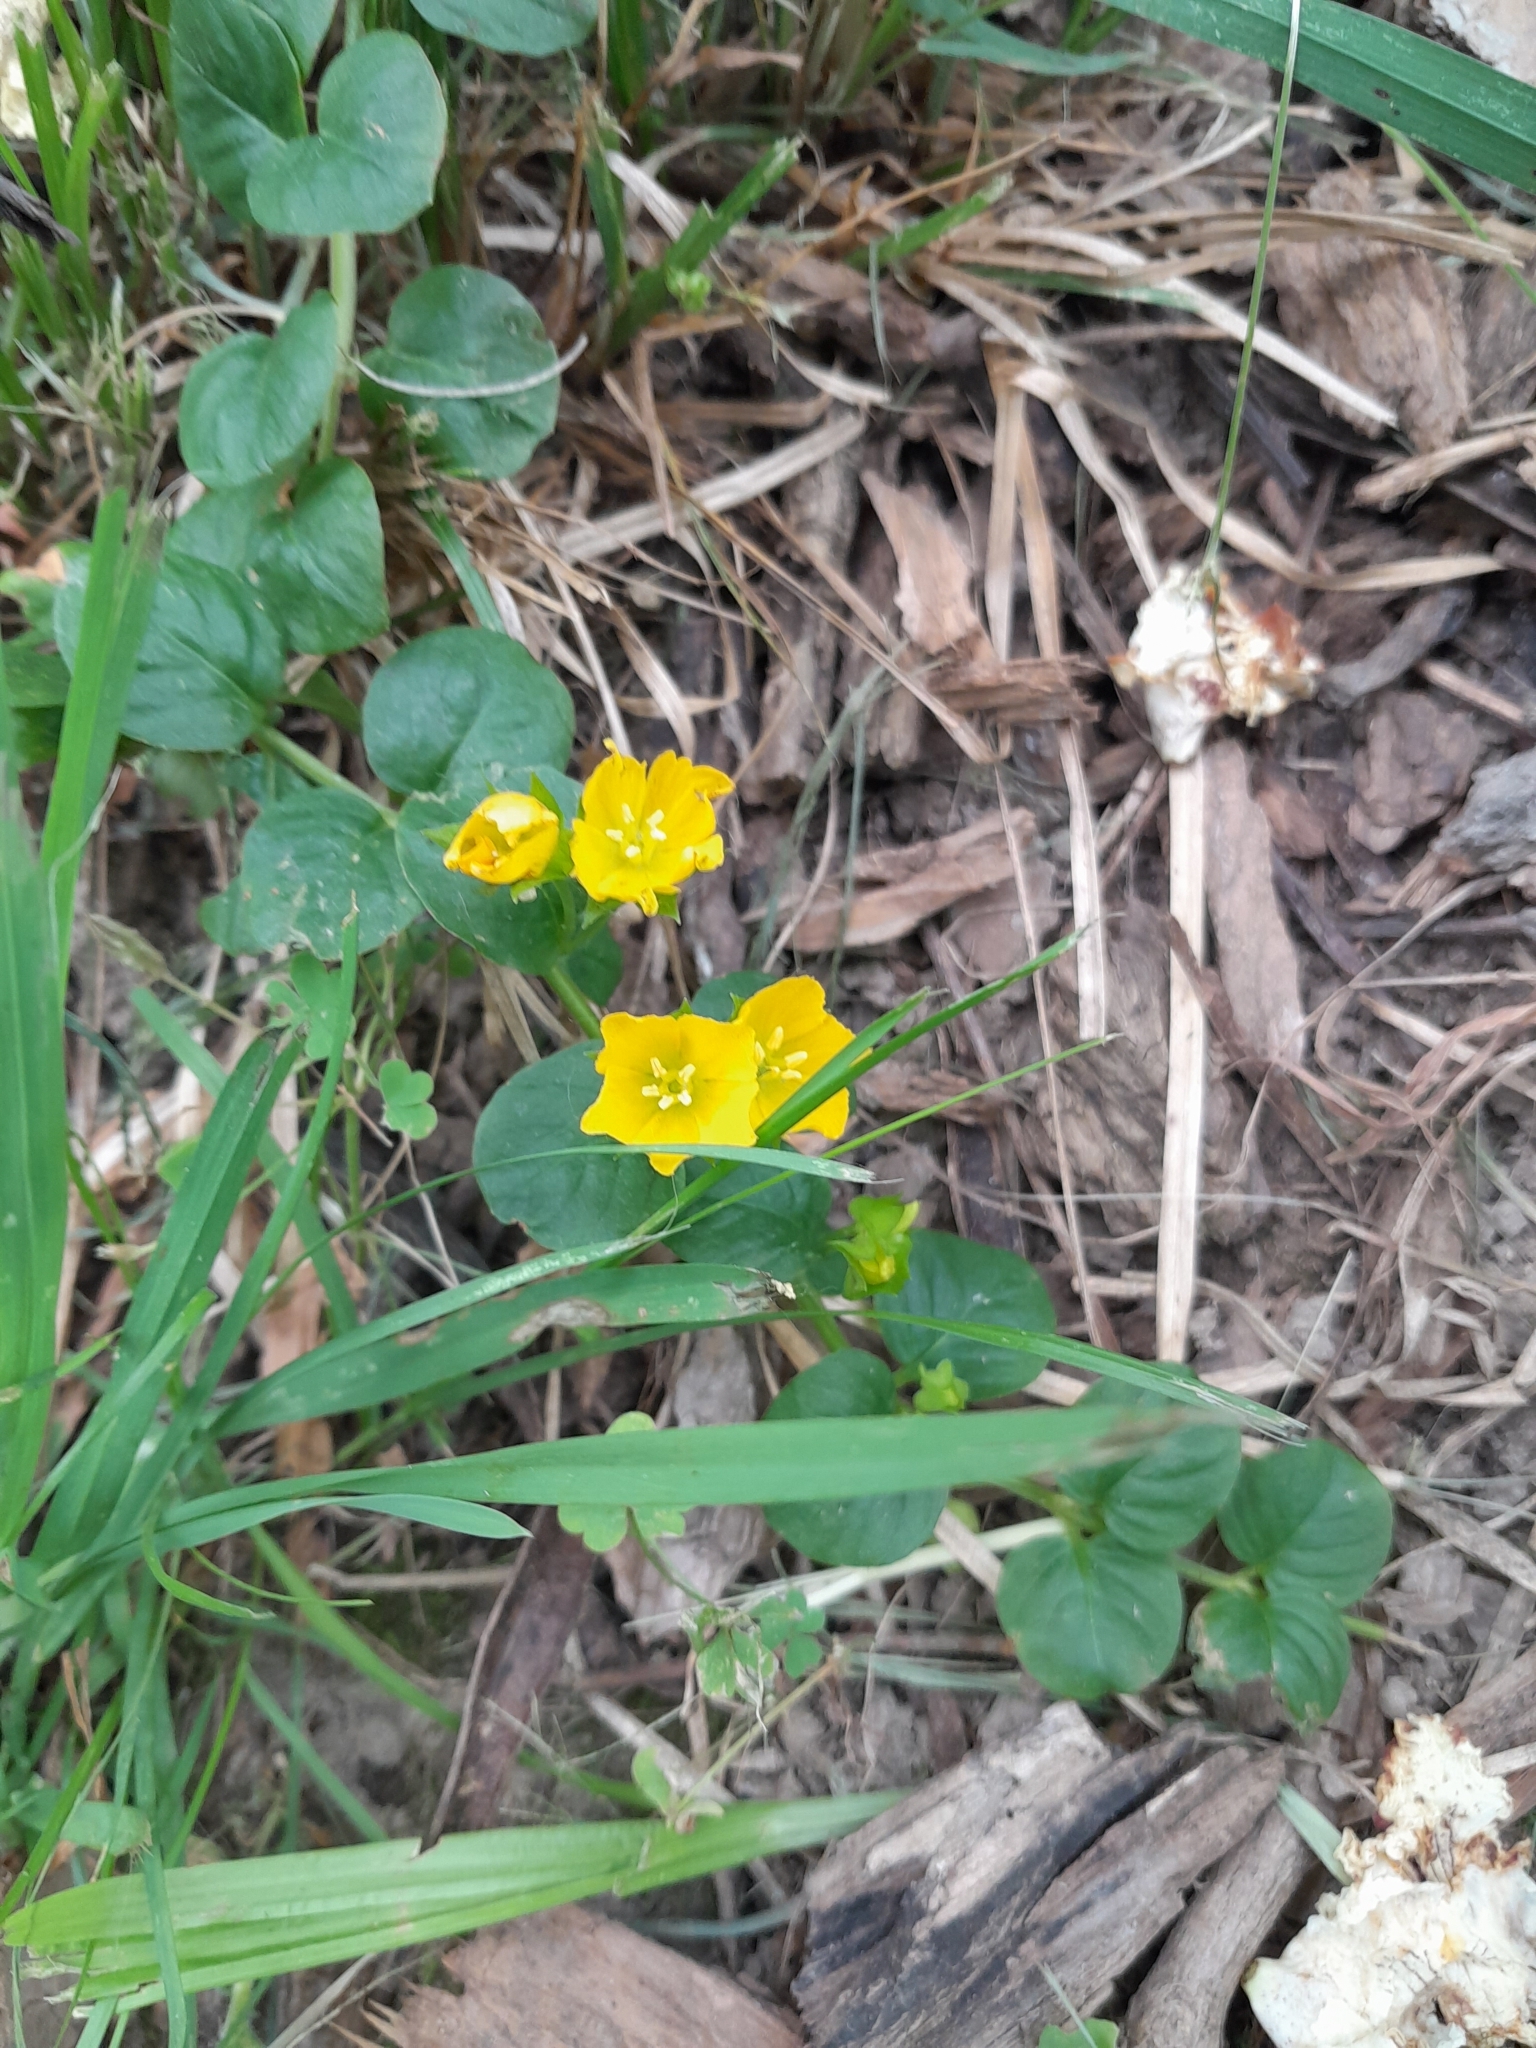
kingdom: Plantae
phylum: Tracheophyta
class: Magnoliopsida
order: Ericales
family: Primulaceae
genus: Lysimachia
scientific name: Lysimachia nummularia
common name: Moneywort
